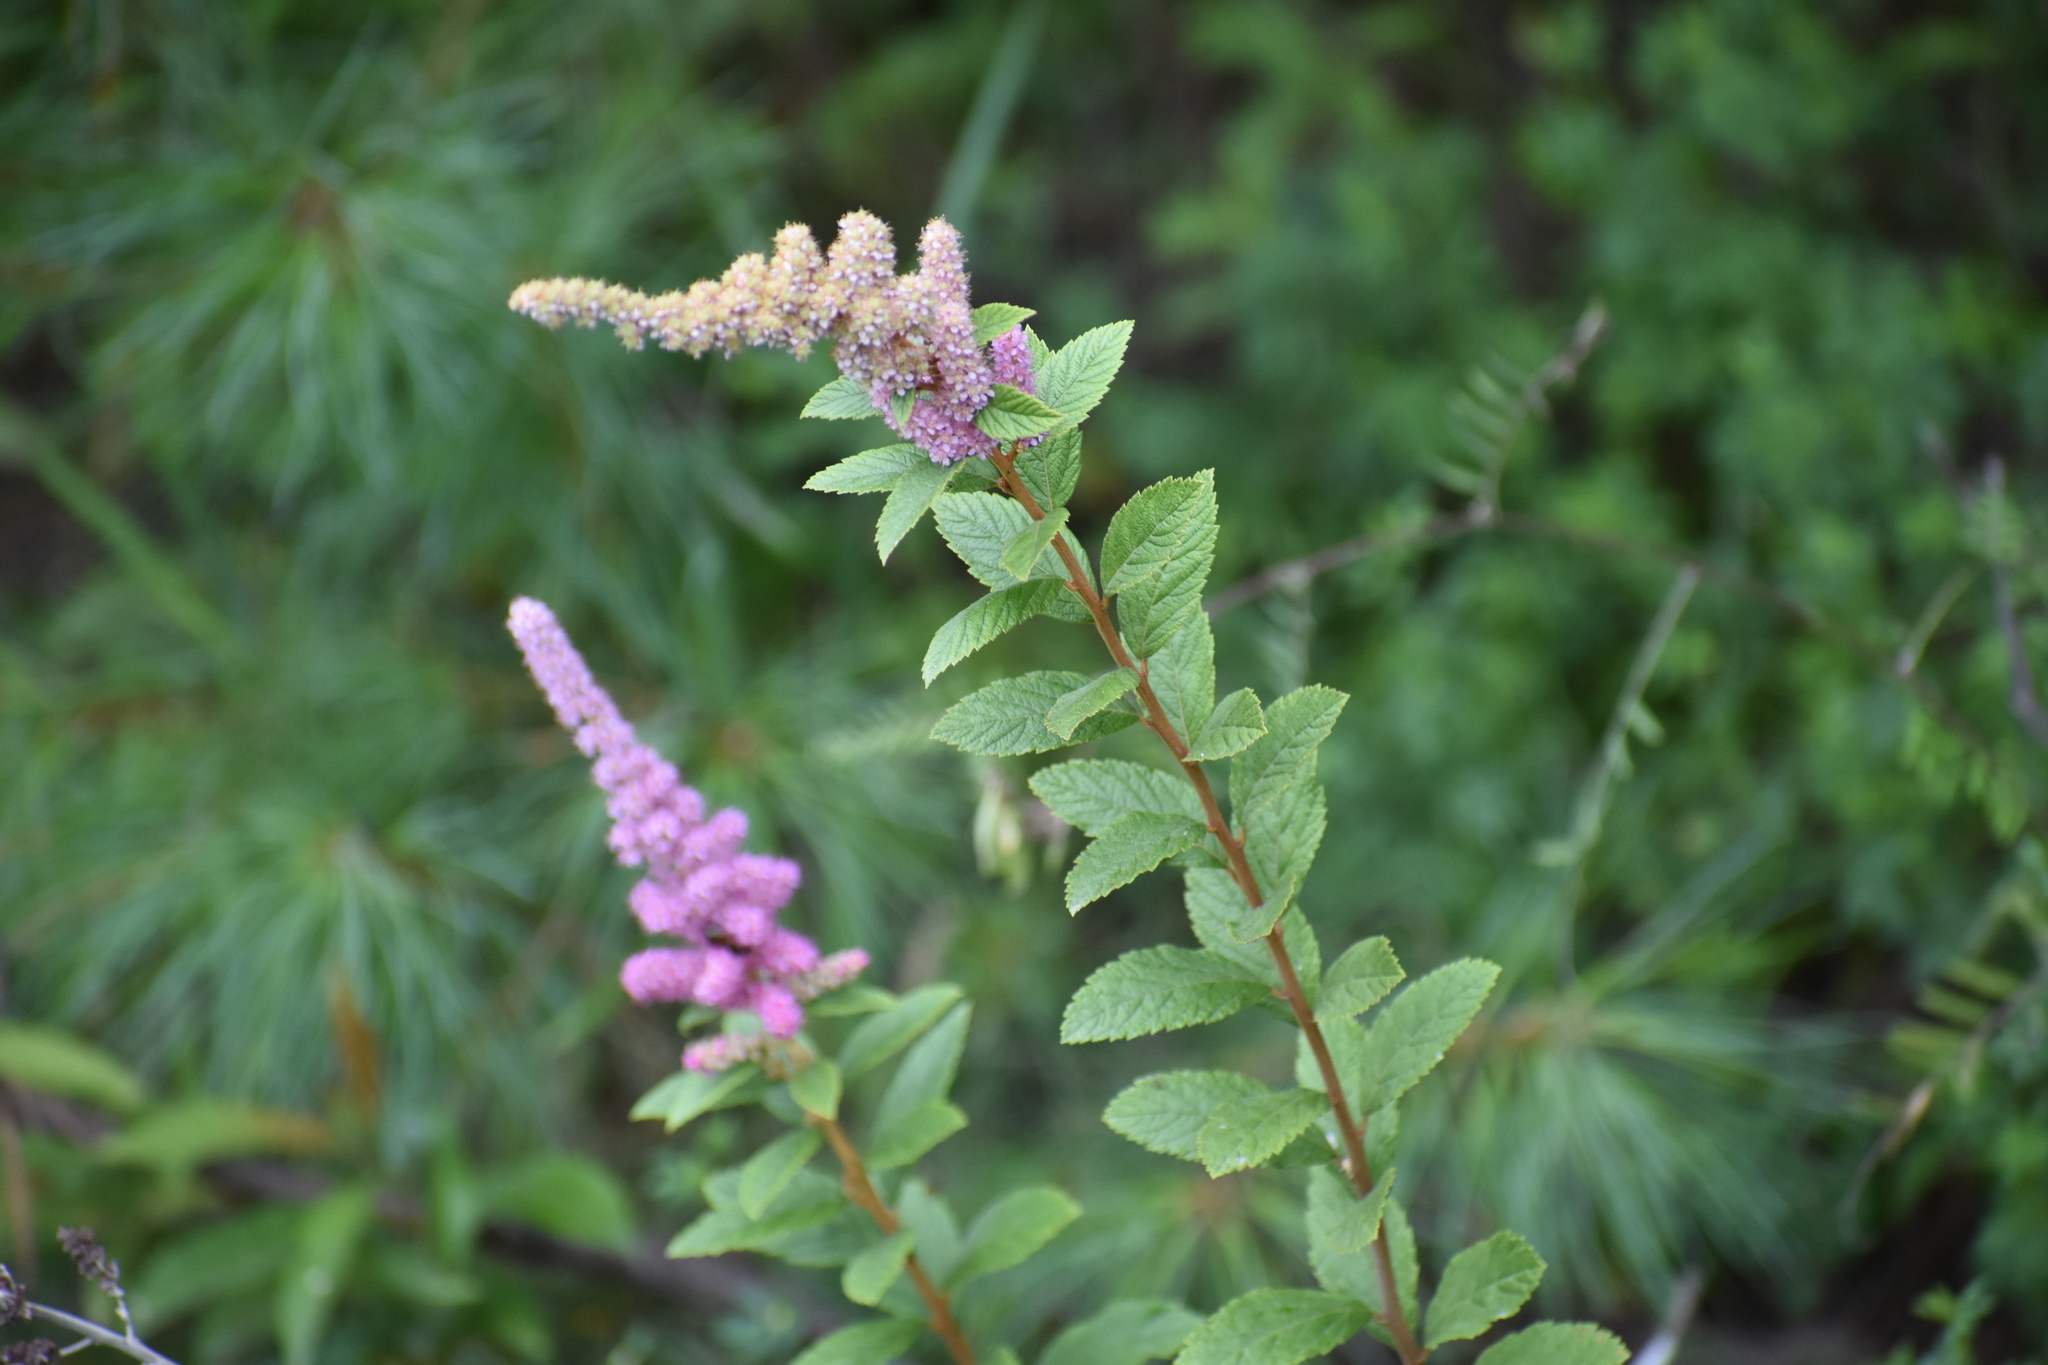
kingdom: Plantae
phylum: Tracheophyta
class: Magnoliopsida
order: Rosales
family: Rosaceae
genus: Spiraea
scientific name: Spiraea tomentosa
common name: Hardhack
